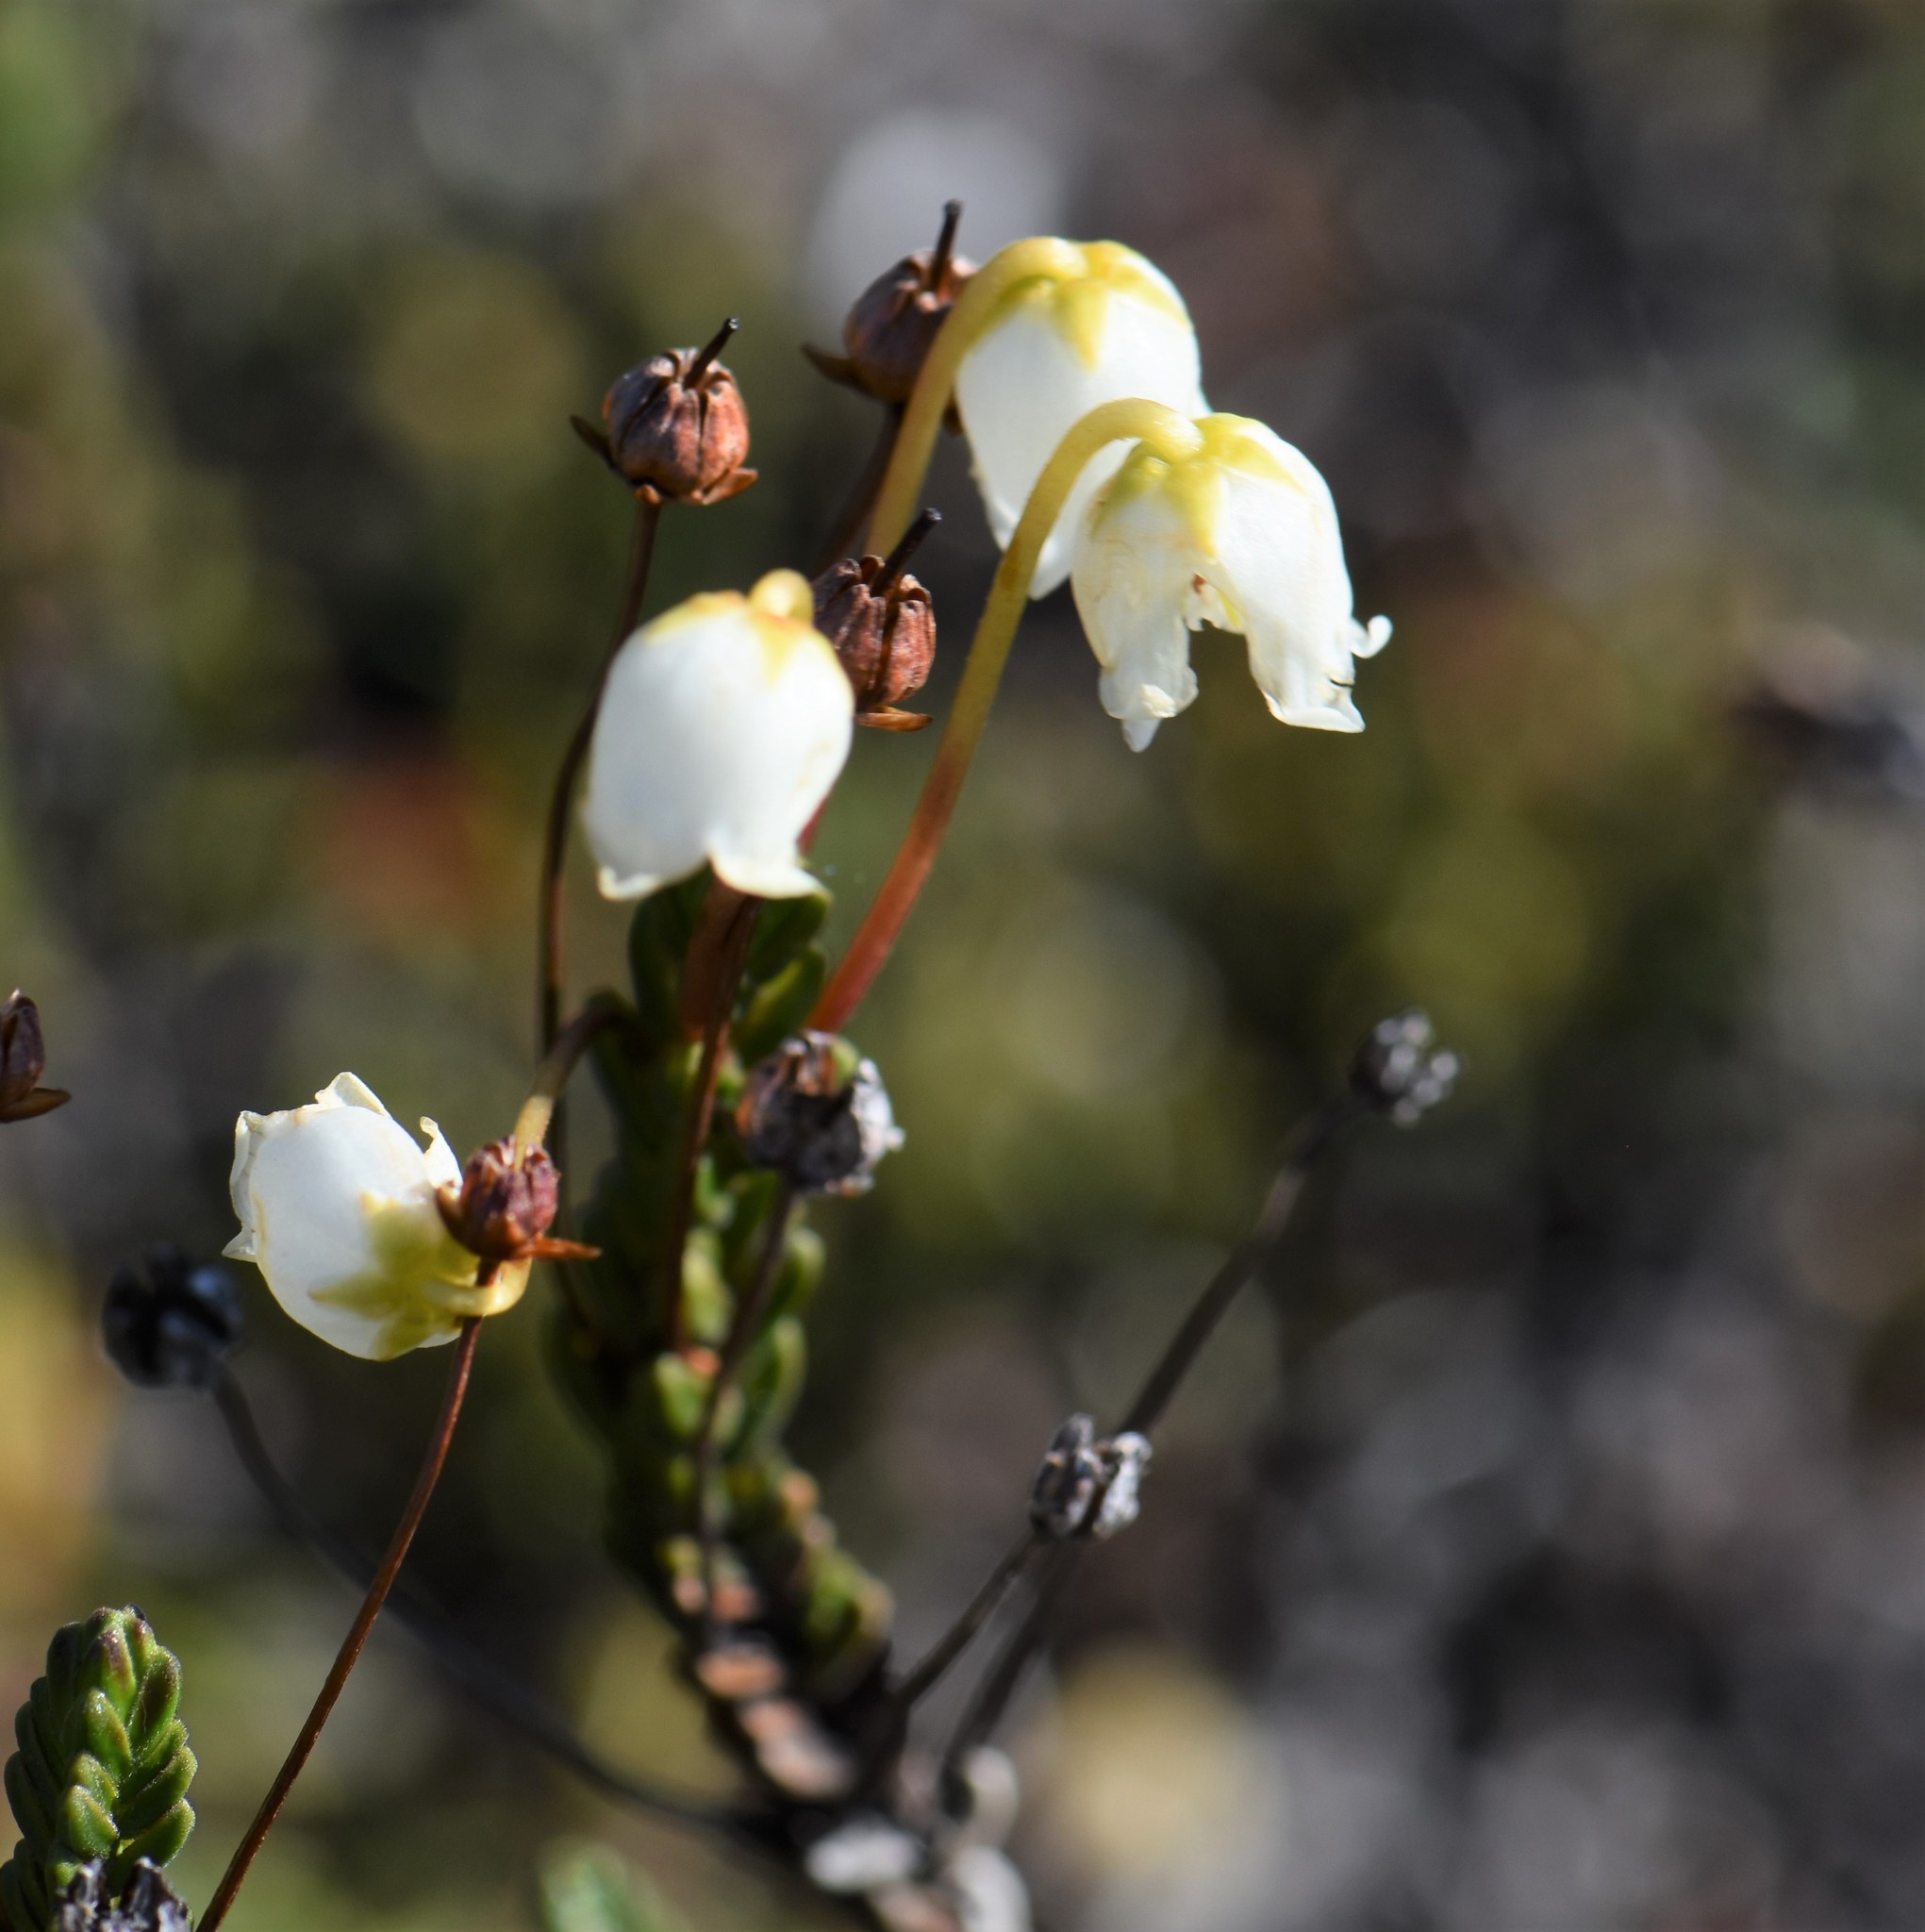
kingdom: Plantae
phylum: Tracheophyta
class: Magnoliopsida
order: Ericales
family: Ericaceae
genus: Cassiope
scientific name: Cassiope tetragona
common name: Arctic bell heather
